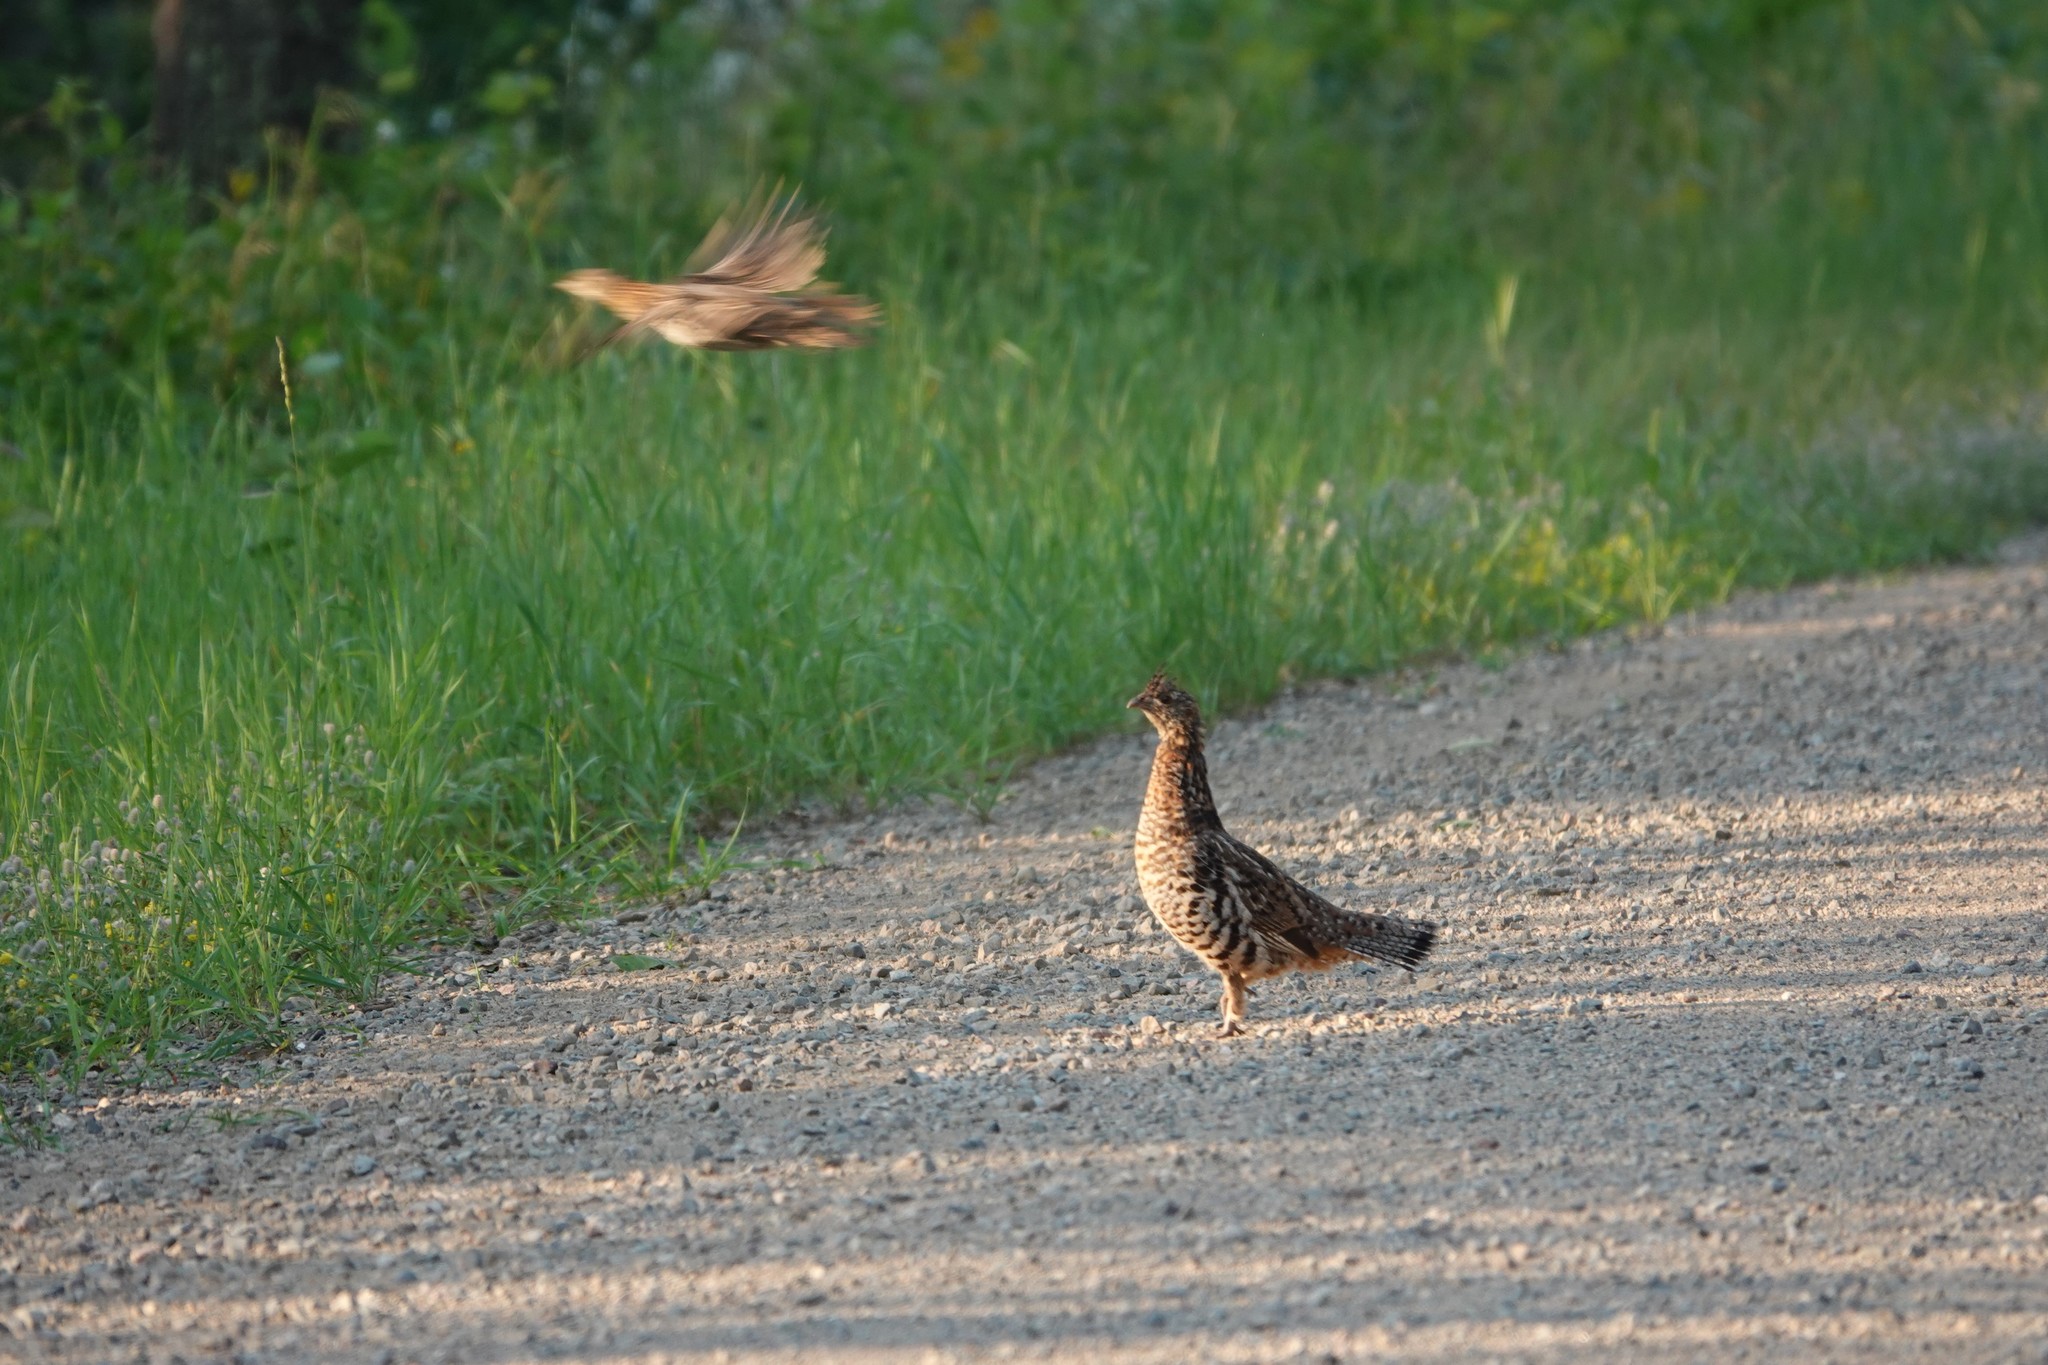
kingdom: Animalia
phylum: Chordata
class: Aves
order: Galliformes
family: Phasianidae
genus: Bonasa
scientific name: Bonasa umbellus
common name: Ruffed grouse
